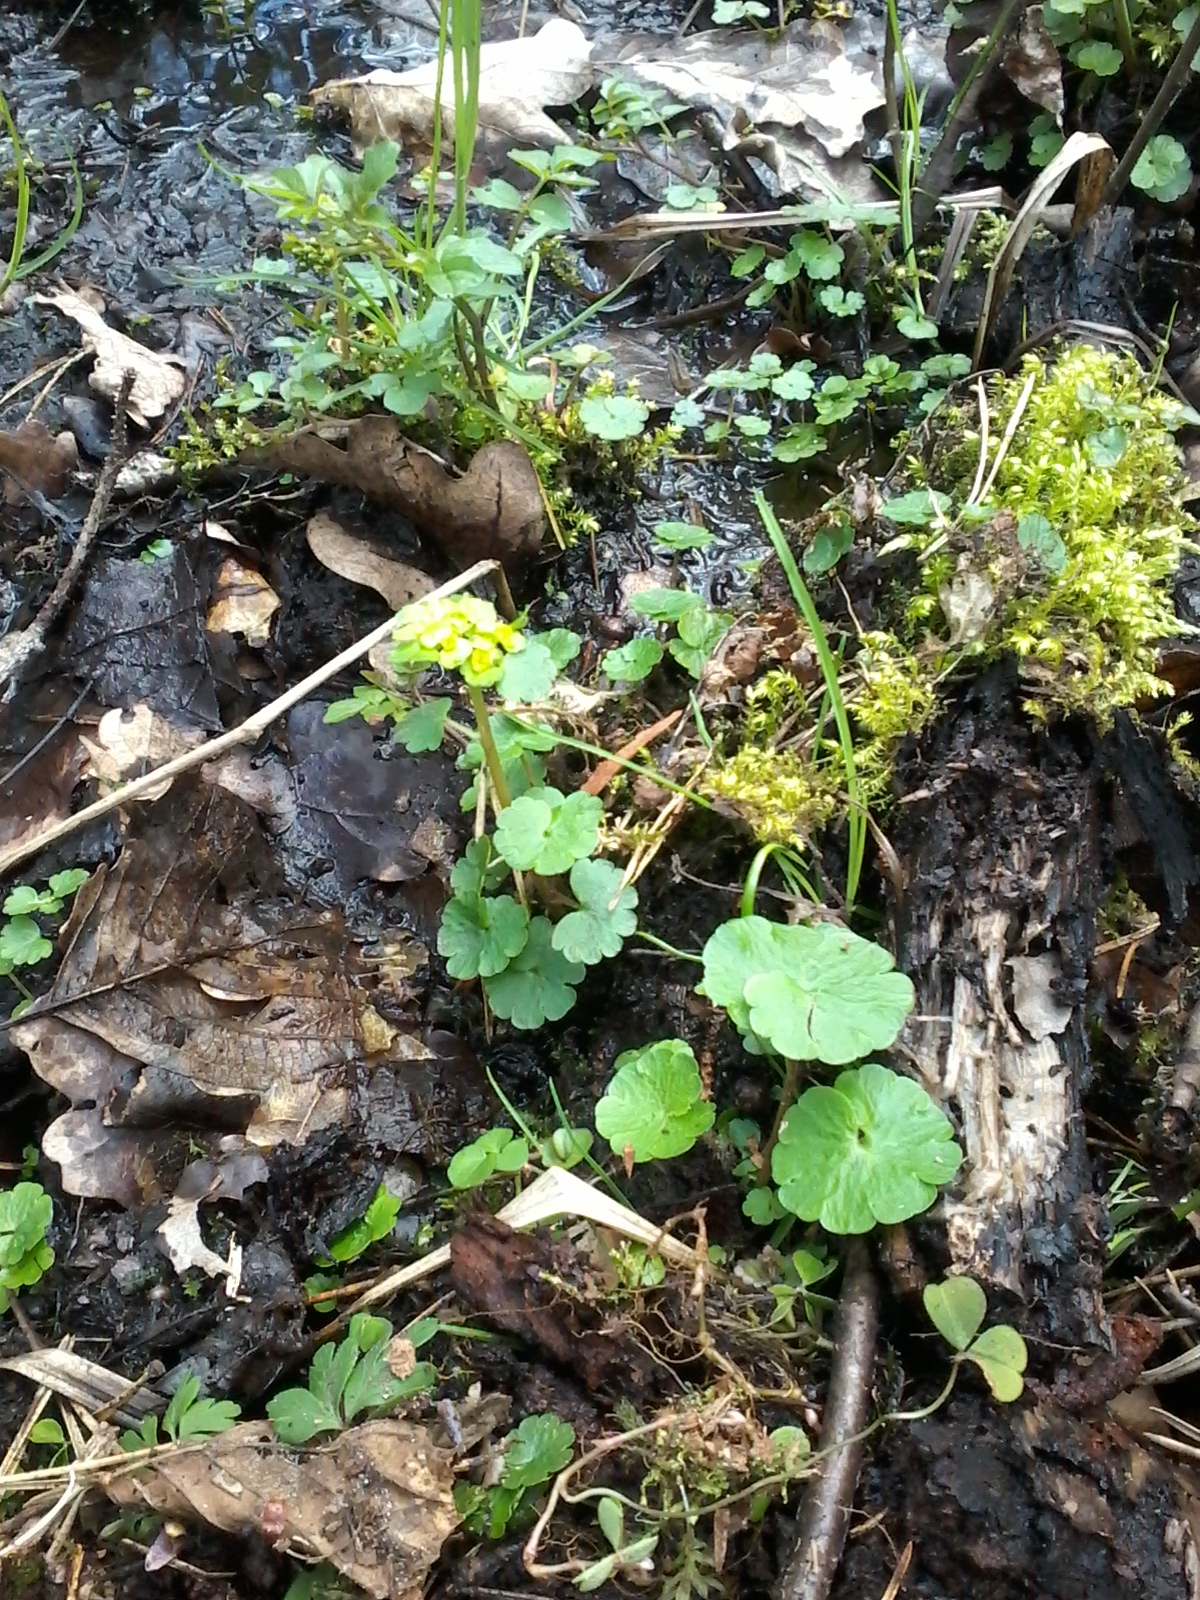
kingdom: Plantae
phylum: Tracheophyta
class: Magnoliopsida
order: Saxifragales
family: Saxifragaceae
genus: Chrysosplenium
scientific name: Chrysosplenium alternifolium
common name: Alternate-leaved golden-saxifrage
